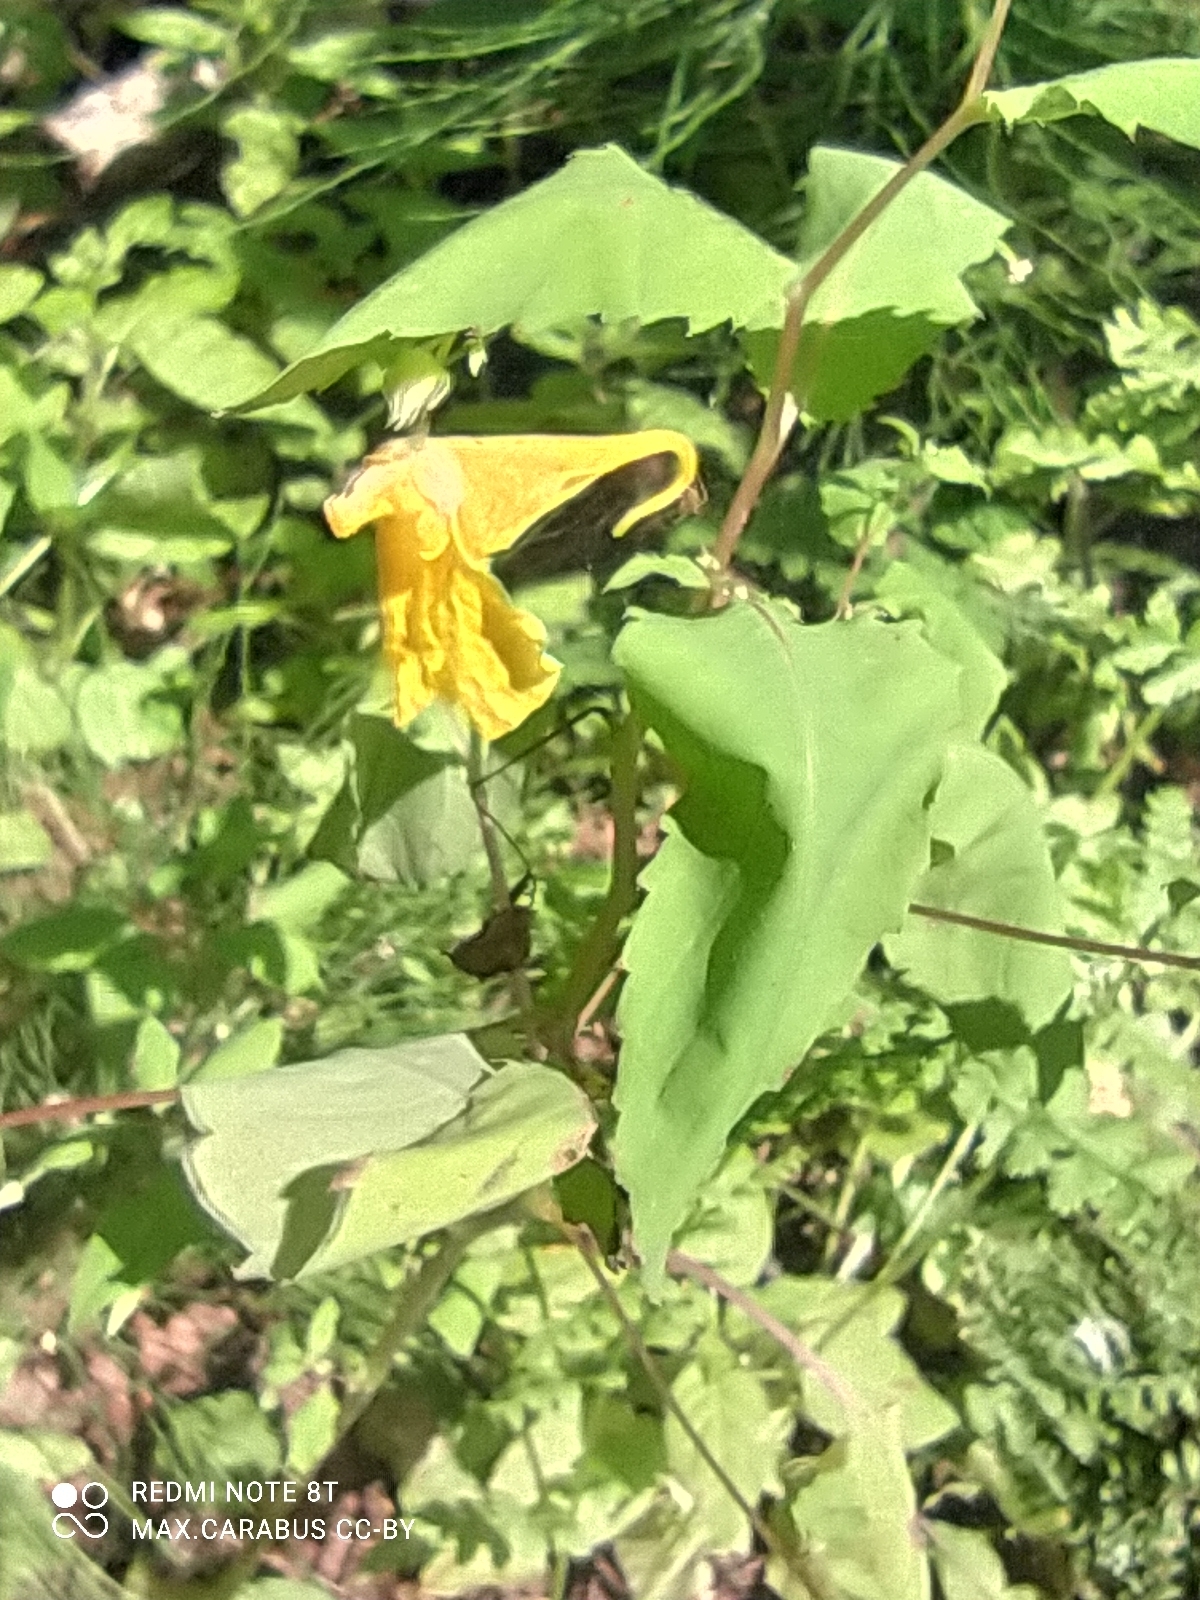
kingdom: Plantae
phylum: Tracheophyta
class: Magnoliopsida
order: Ericales
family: Balsaminaceae
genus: Impatiens
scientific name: Impatiens noli-tangere
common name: Touch-me-not balsam
